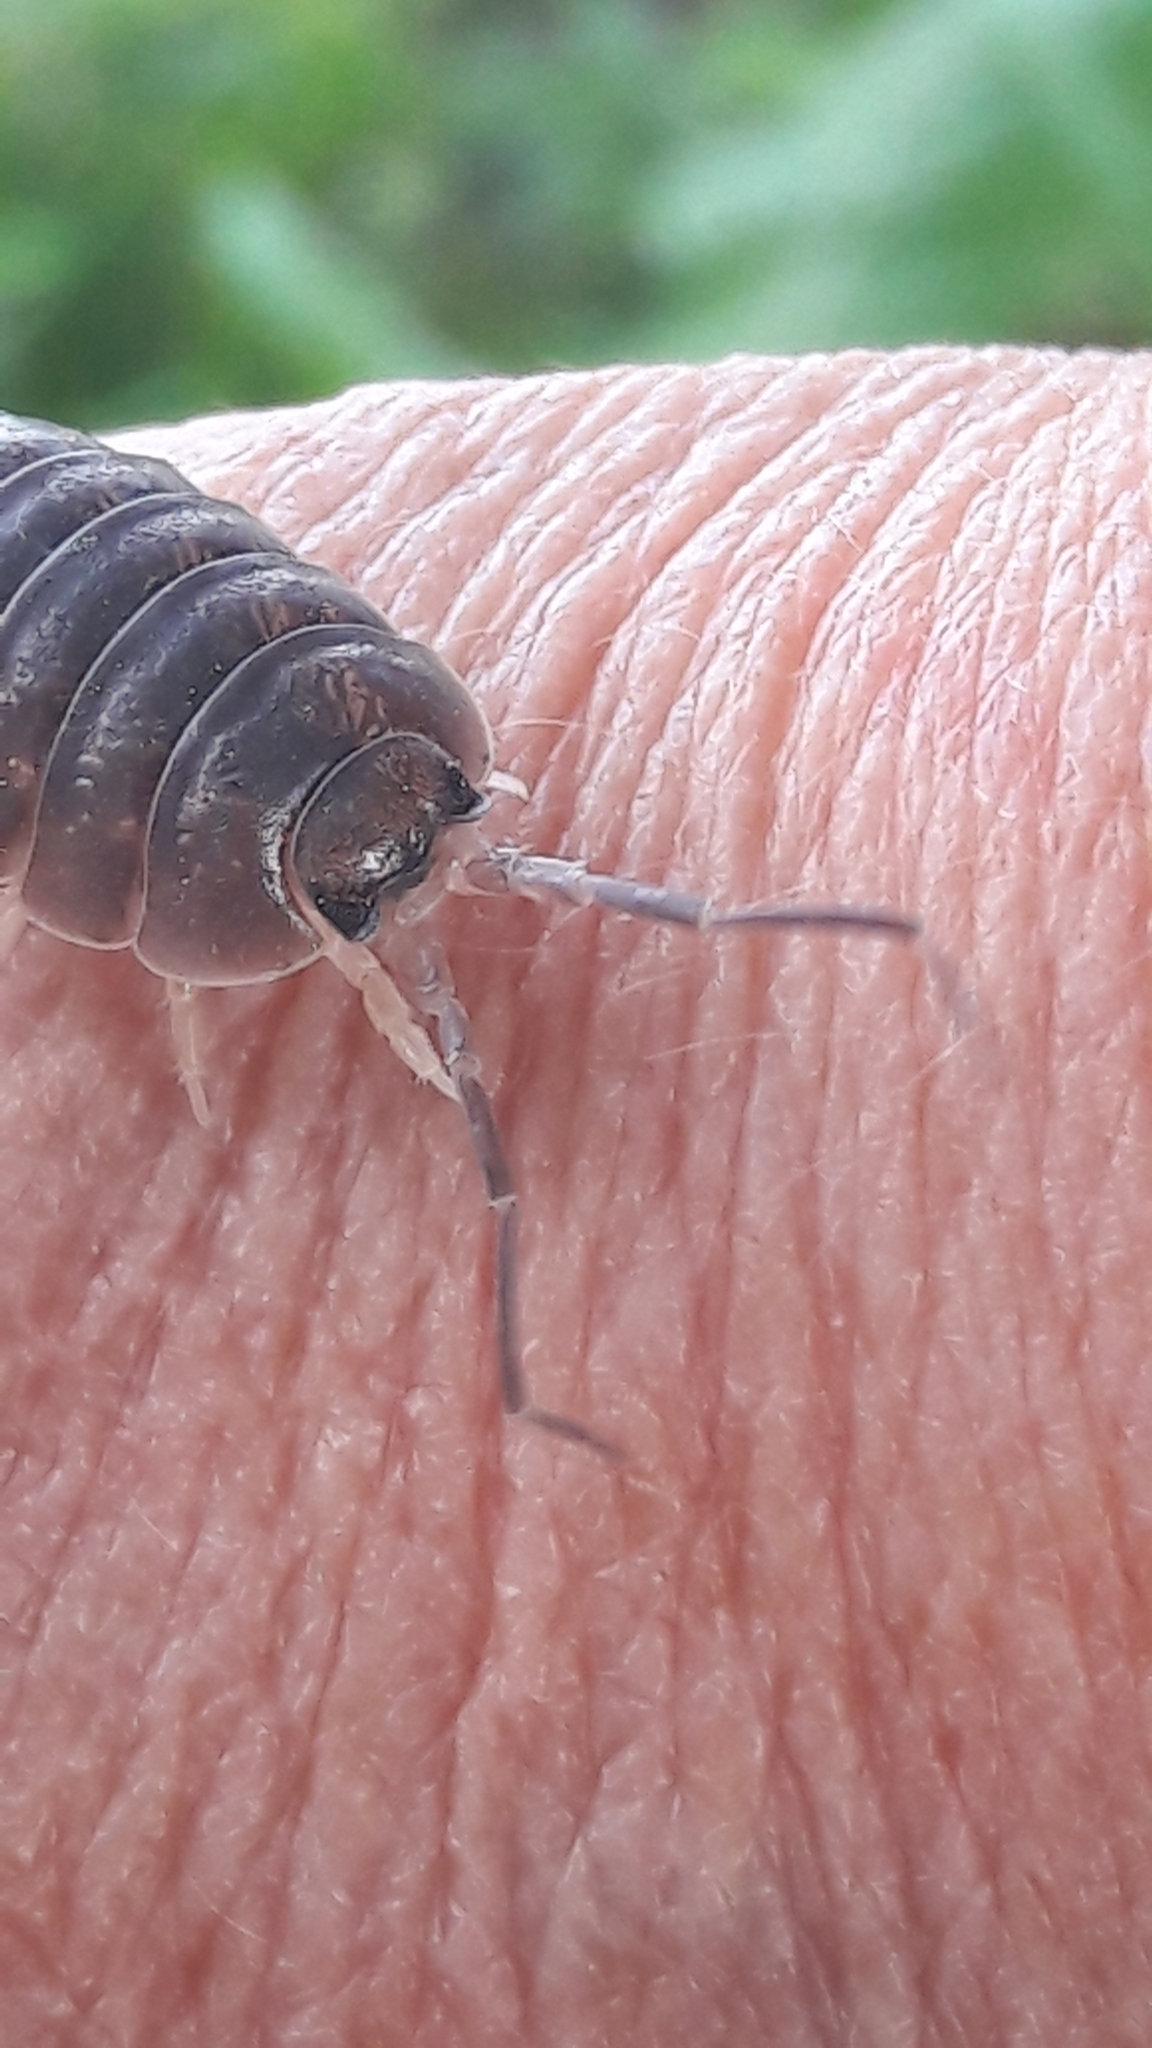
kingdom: Animalia
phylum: Arthropoda
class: Malacostraca
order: Isopoda
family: Porcellionidae
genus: Porcellio
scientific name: Porcellio laevis
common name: Swift woodlouse
